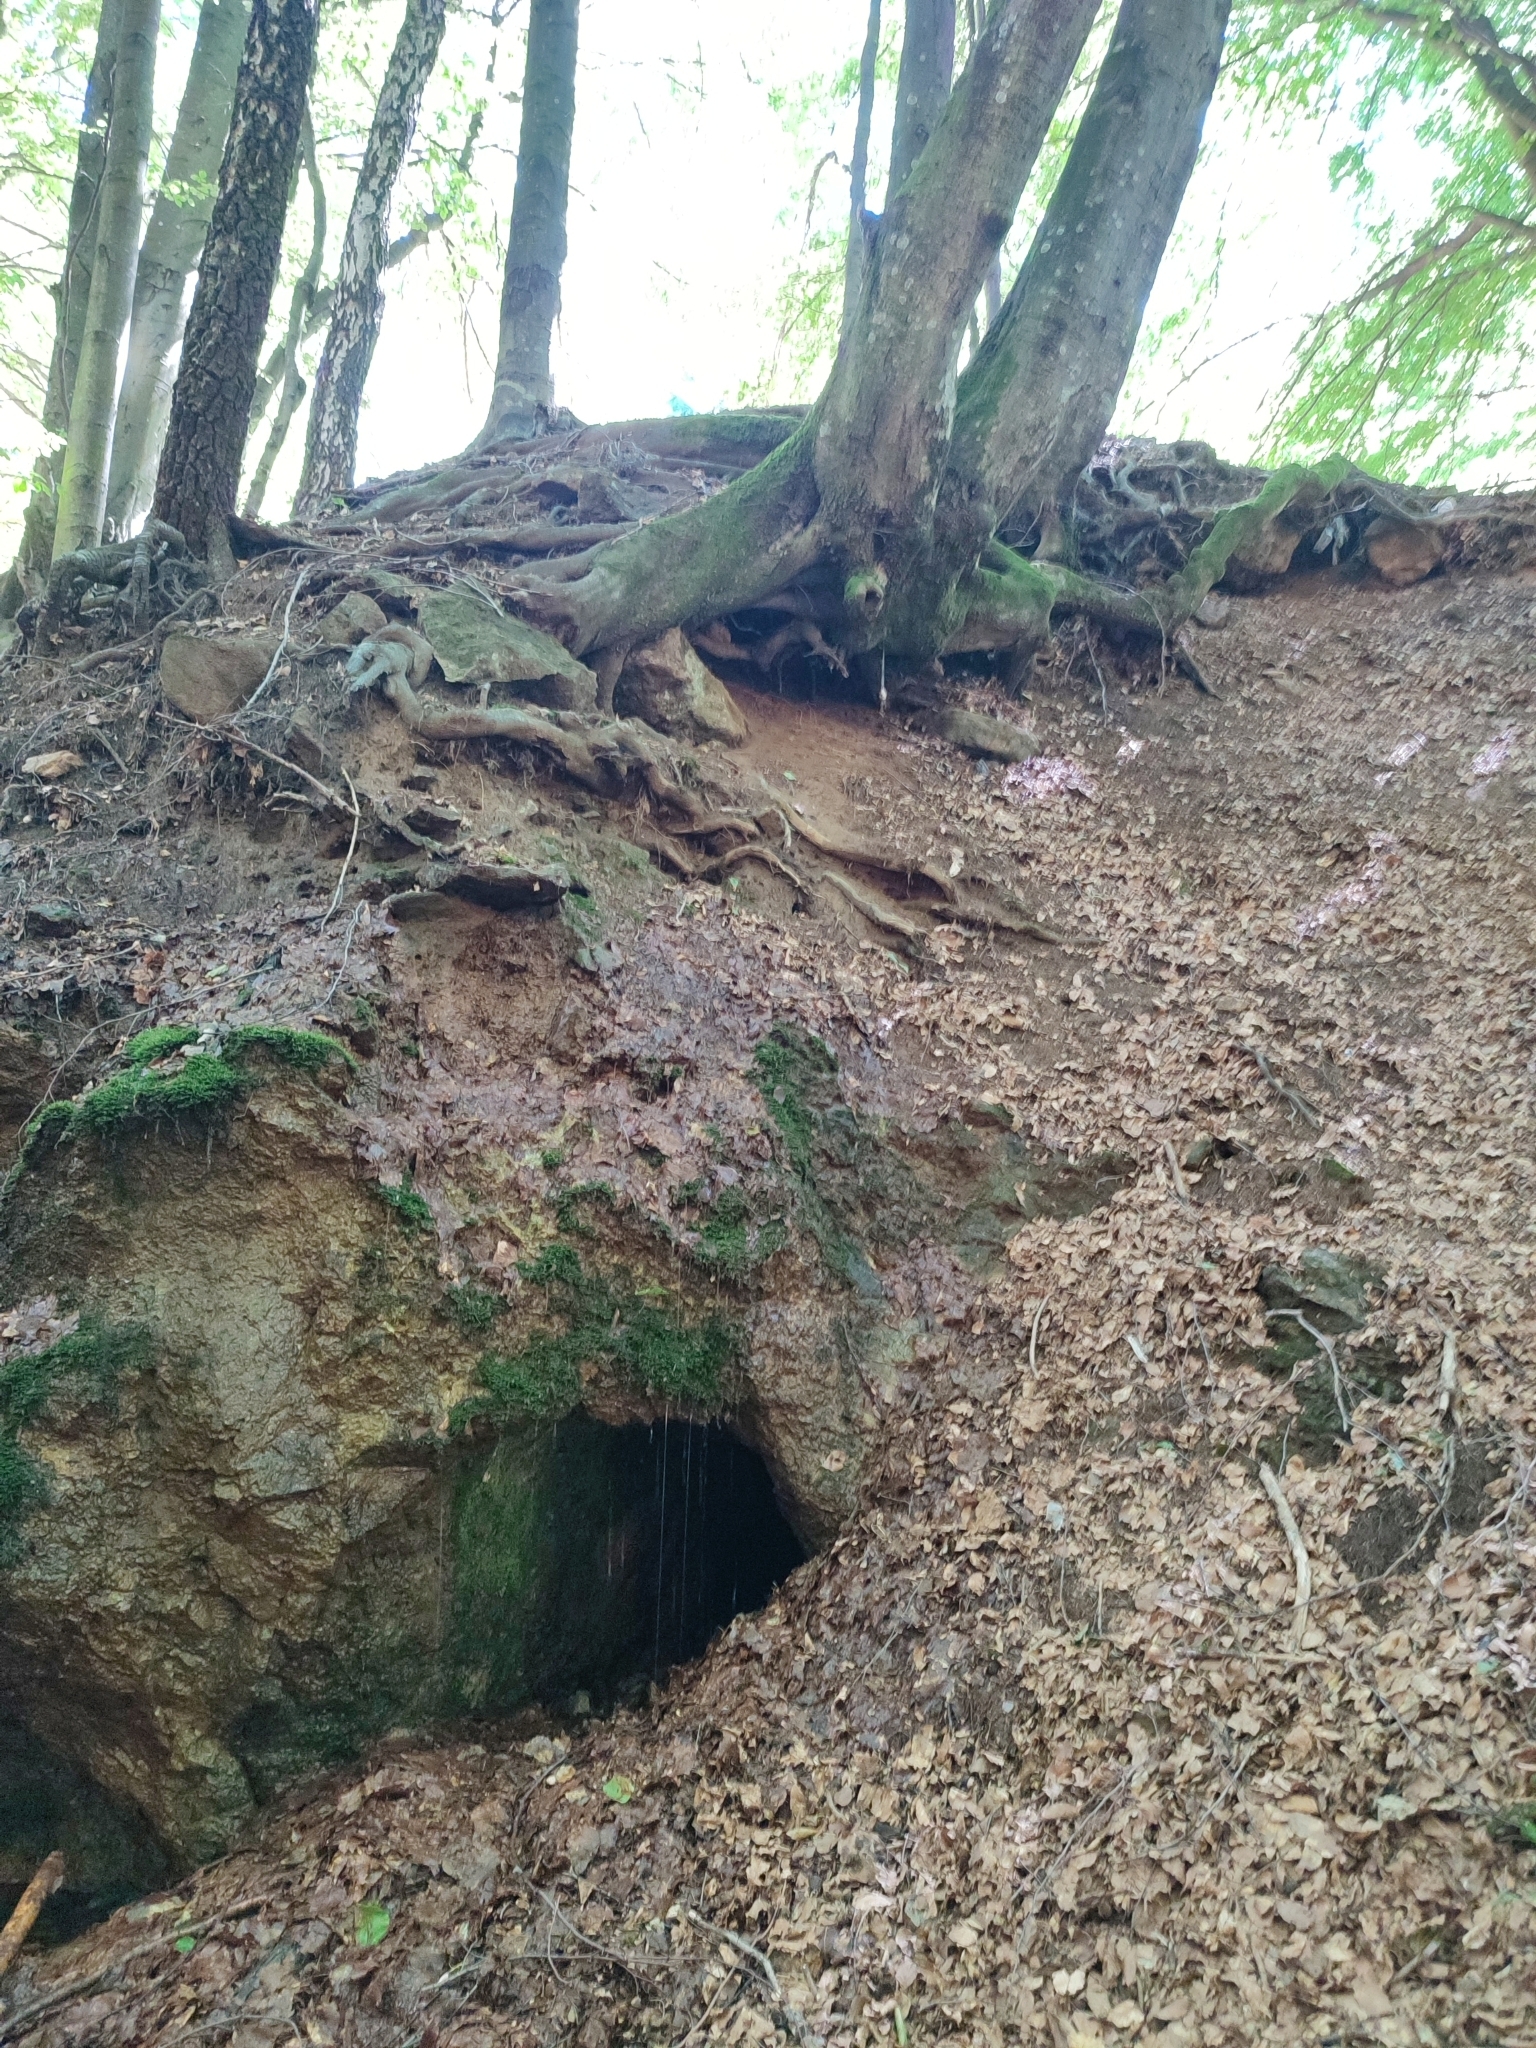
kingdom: Plantae
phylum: Tracheophyta
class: Magnoliopsida
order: Fagales
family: Fagaceae
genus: Fagus
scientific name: Fagus sylvatica
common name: Beech
